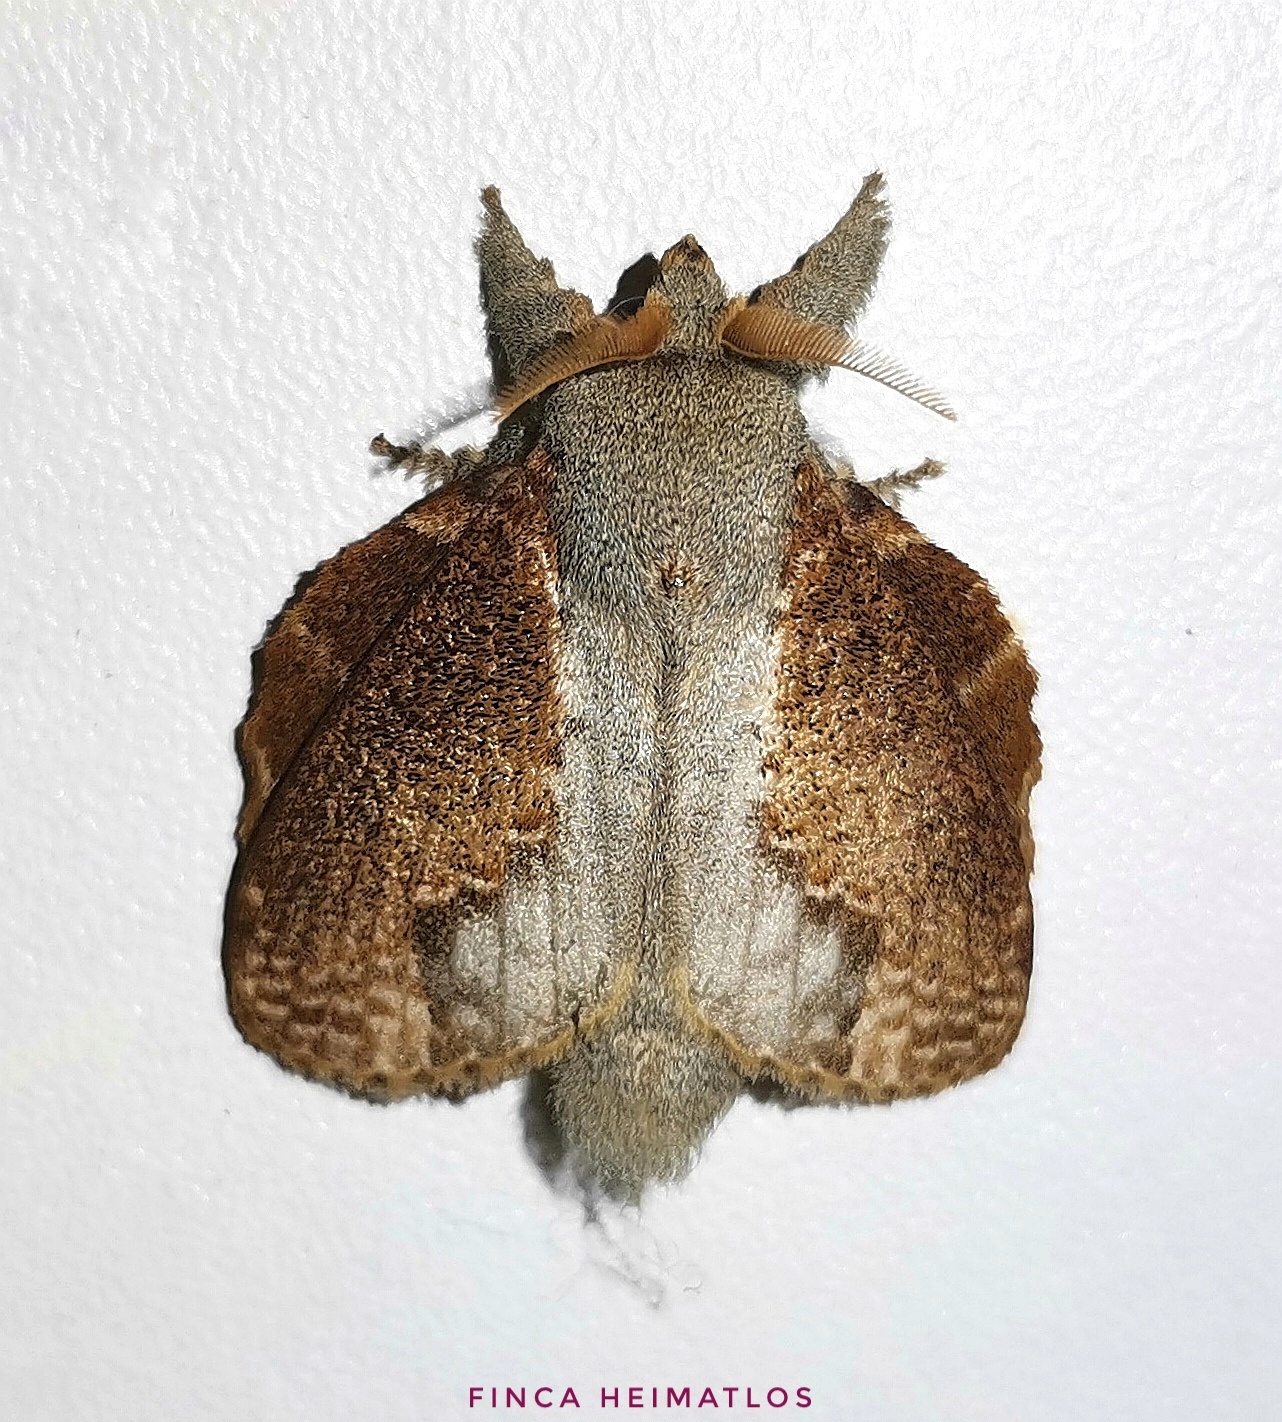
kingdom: Animalia
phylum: Arthropoda
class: Insecta
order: Lepidoptera
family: Lasiocampidae
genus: Euglyphis
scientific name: Euglyphis lankesteri
